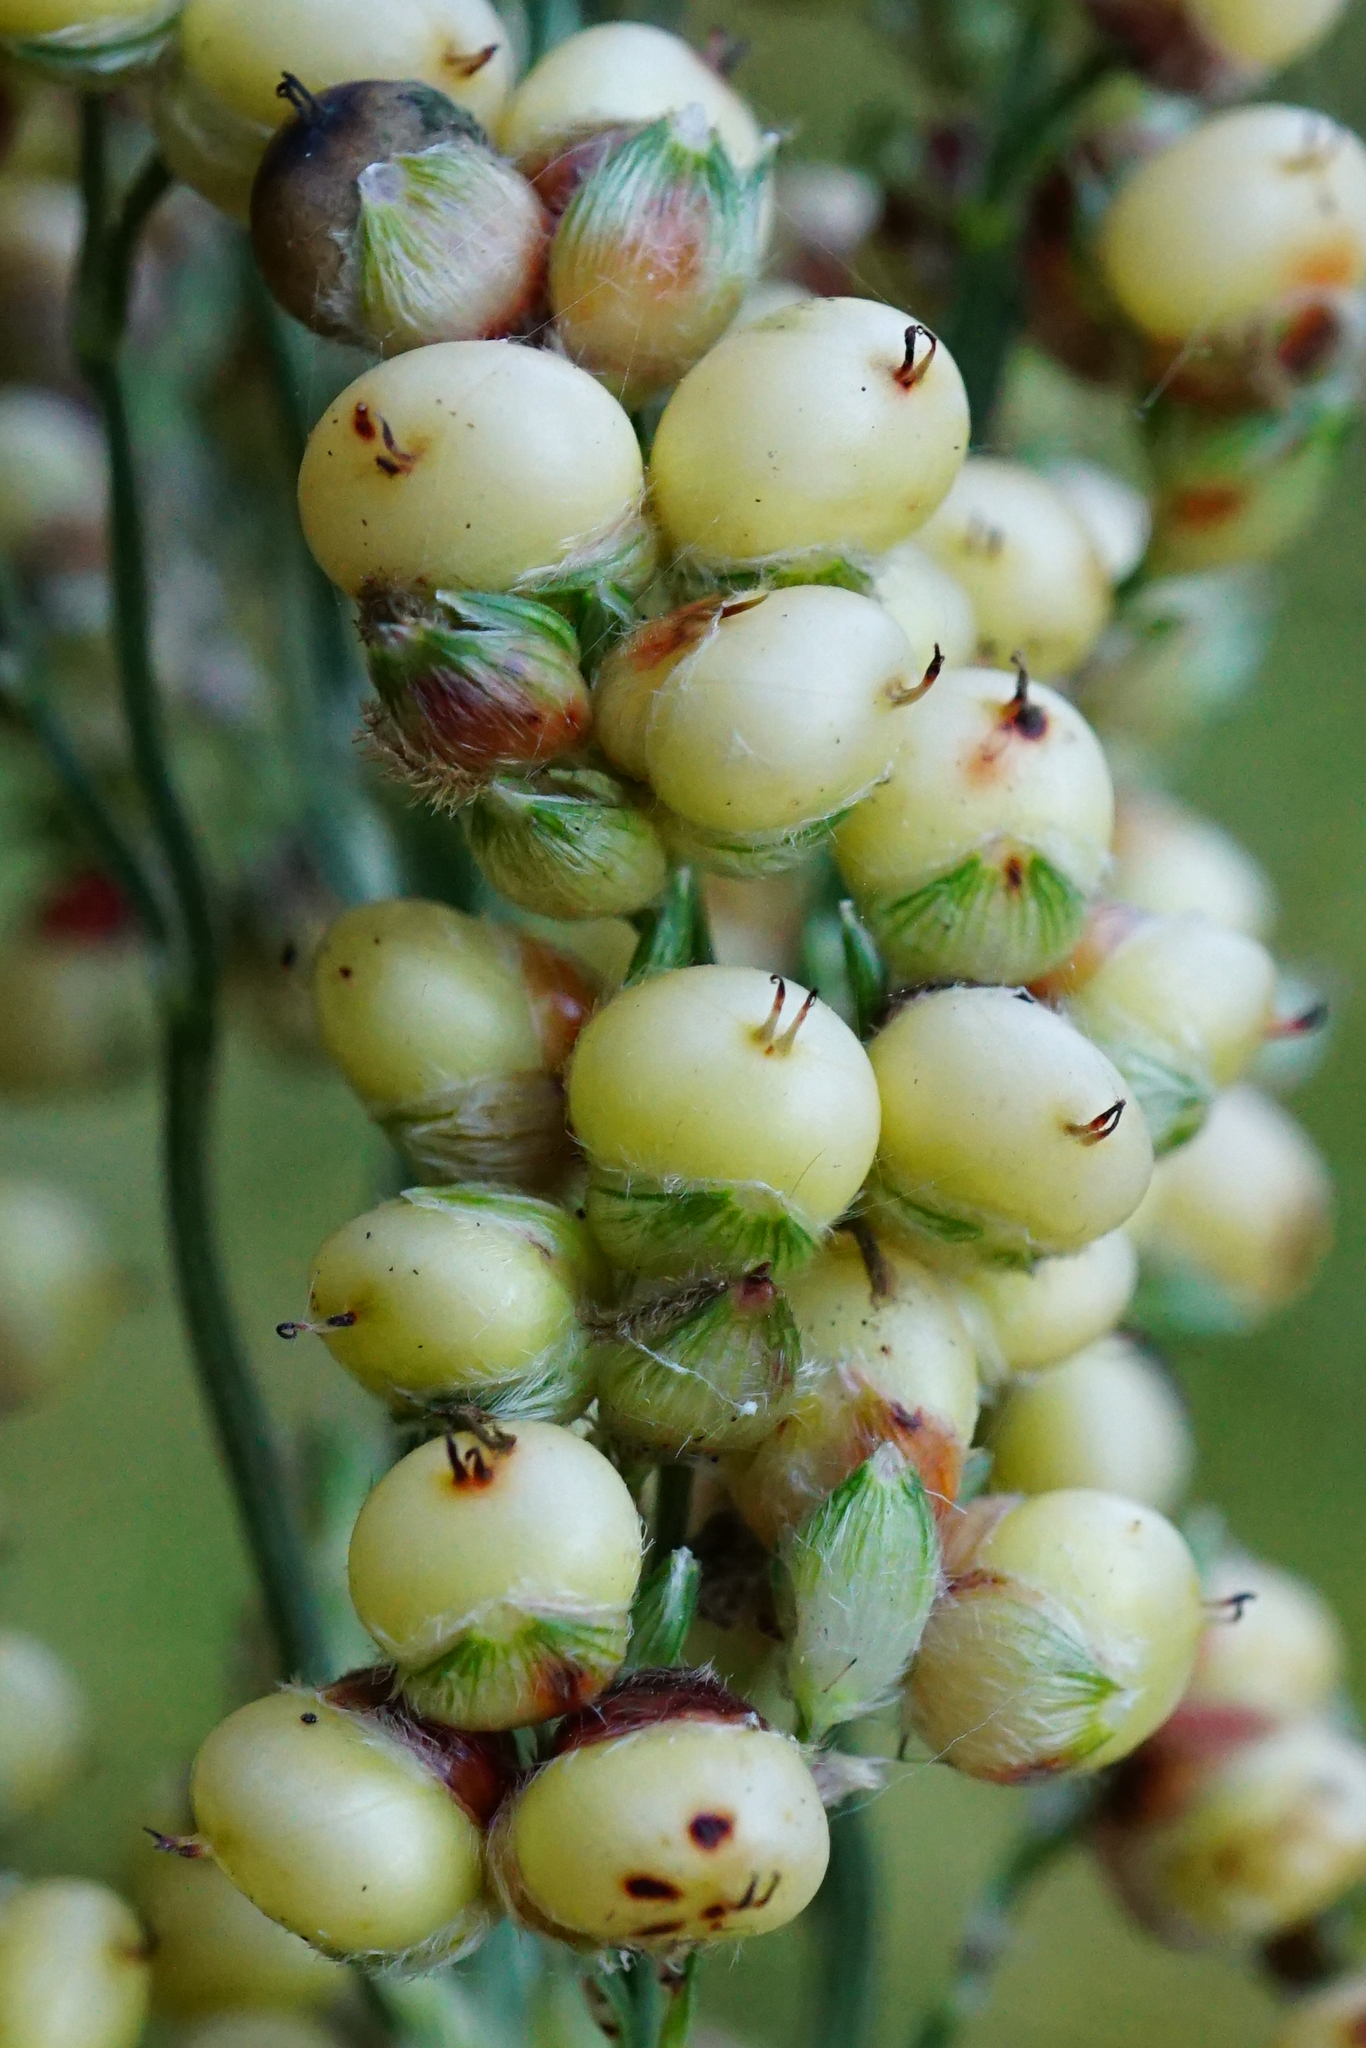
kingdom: Plantae
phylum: Tracheophyta
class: Liliopsida
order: Poales
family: Poaceae
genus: Sorghum
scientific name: Sorghum bicolor
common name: Sorghum
